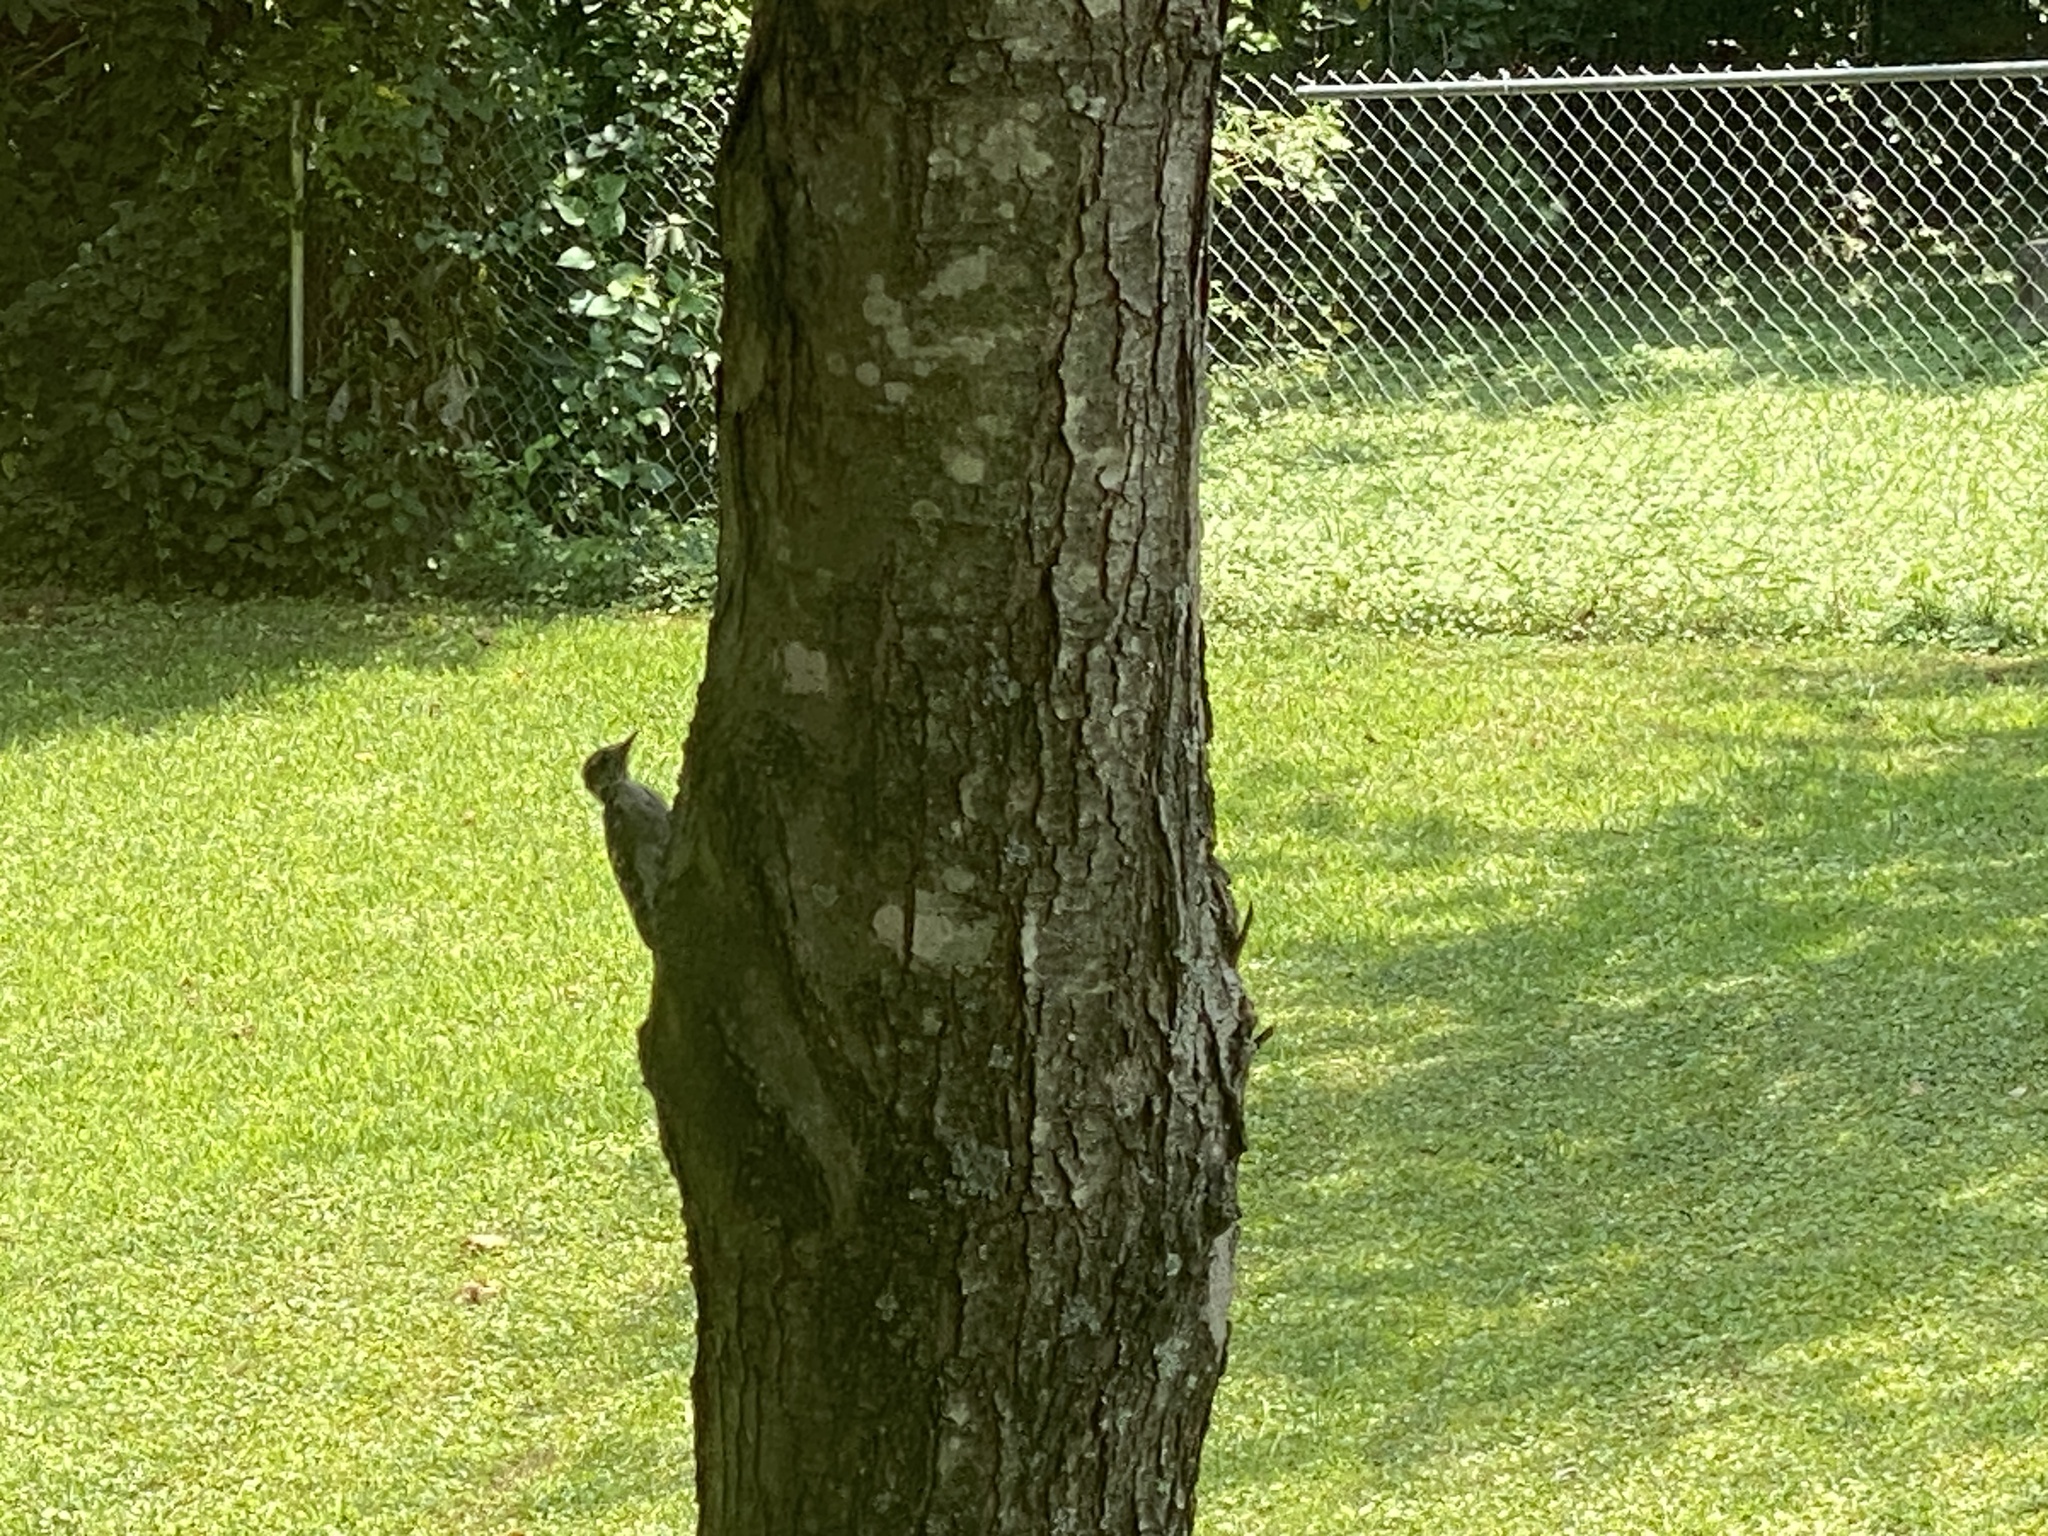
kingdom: Animalia
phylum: Chordata
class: Aves
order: Piciformes
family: Picidae
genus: Dryobates
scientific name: Dryobates pubescens
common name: Downy woodpecker
